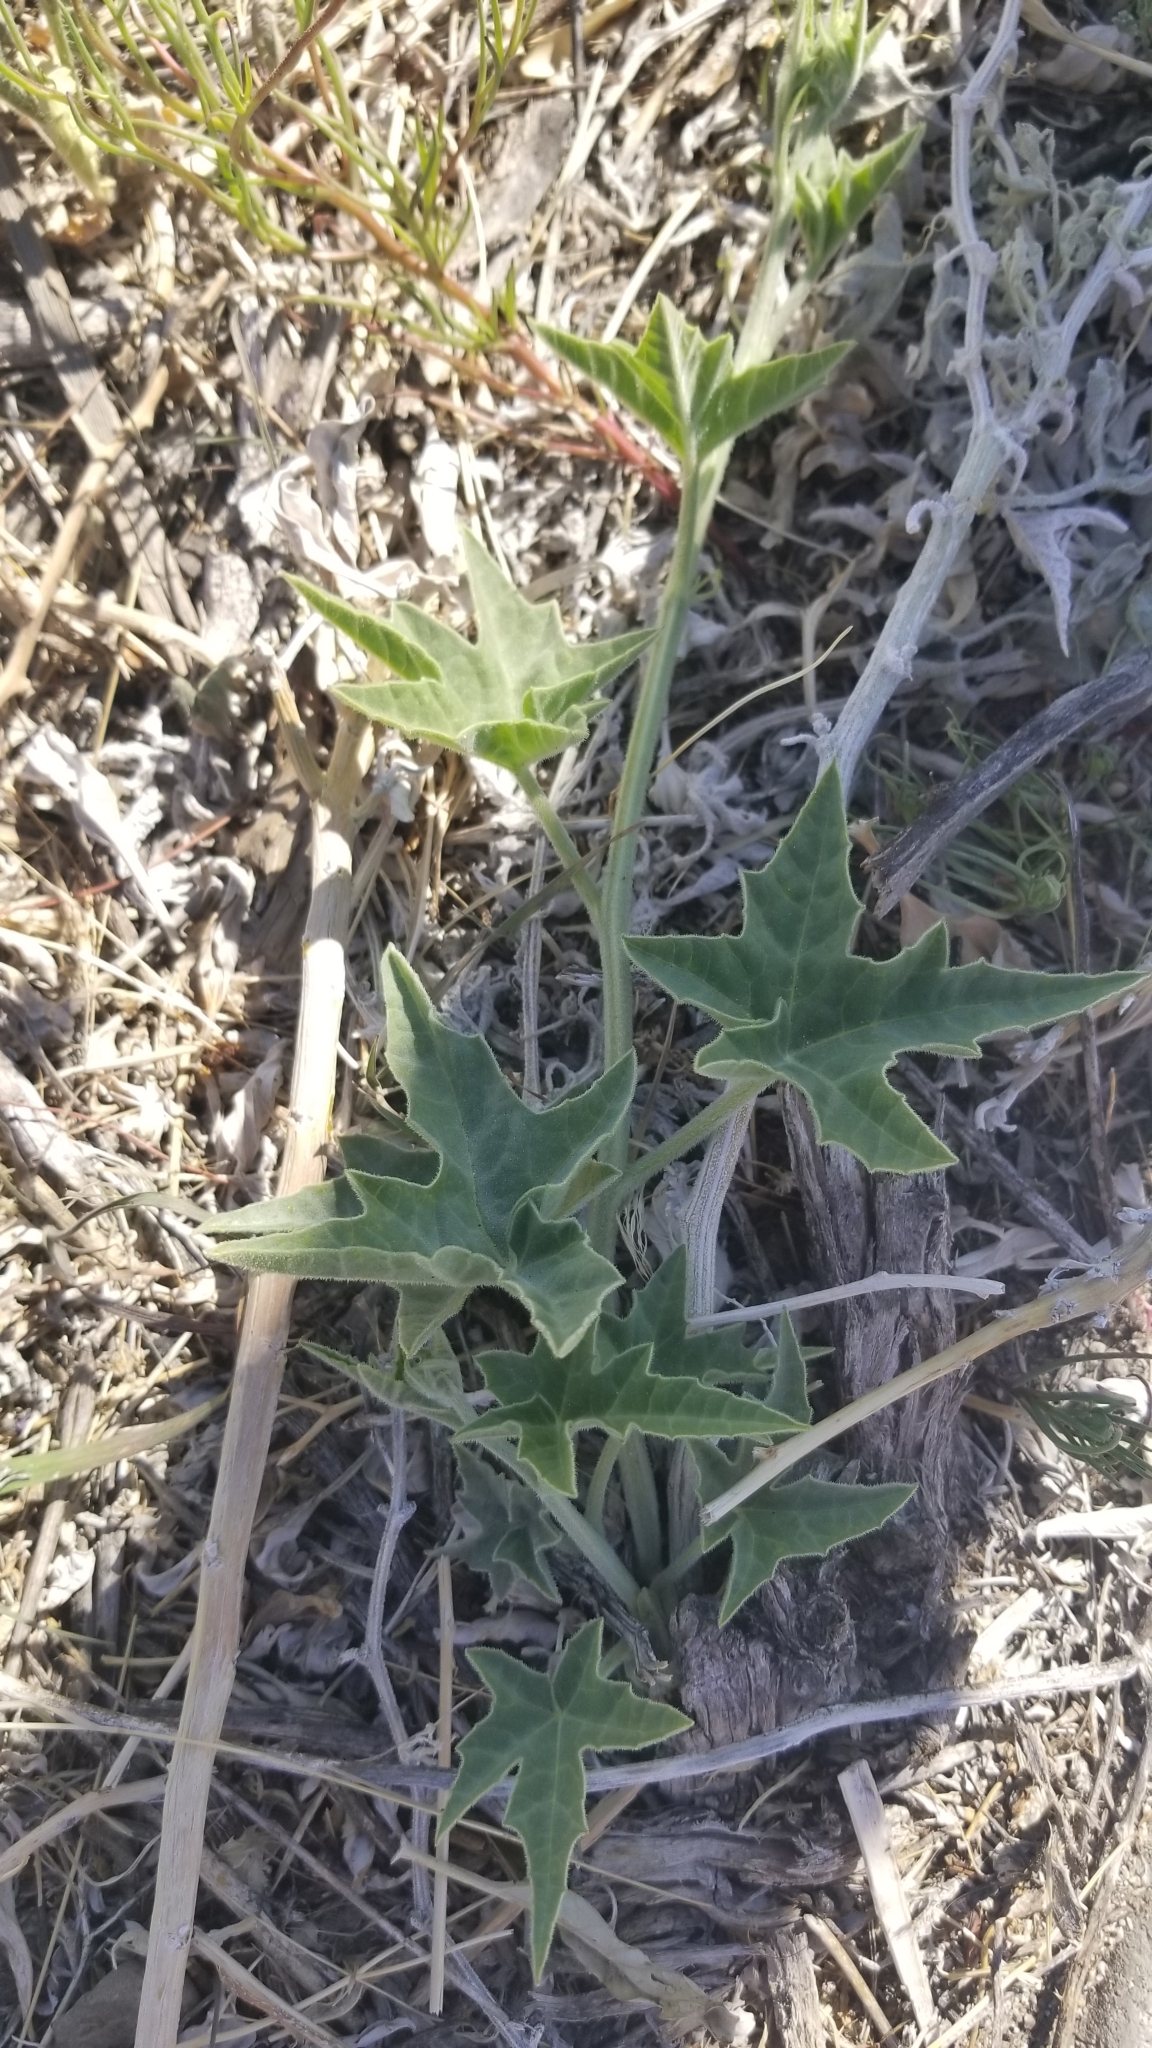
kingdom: Plantae
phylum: Tracheophyta
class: Magnoliopsida
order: Cucurbitales
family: Cucurbitaceae
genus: Cucurbita
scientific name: Cucurbita palmata
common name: Coyote-melon
